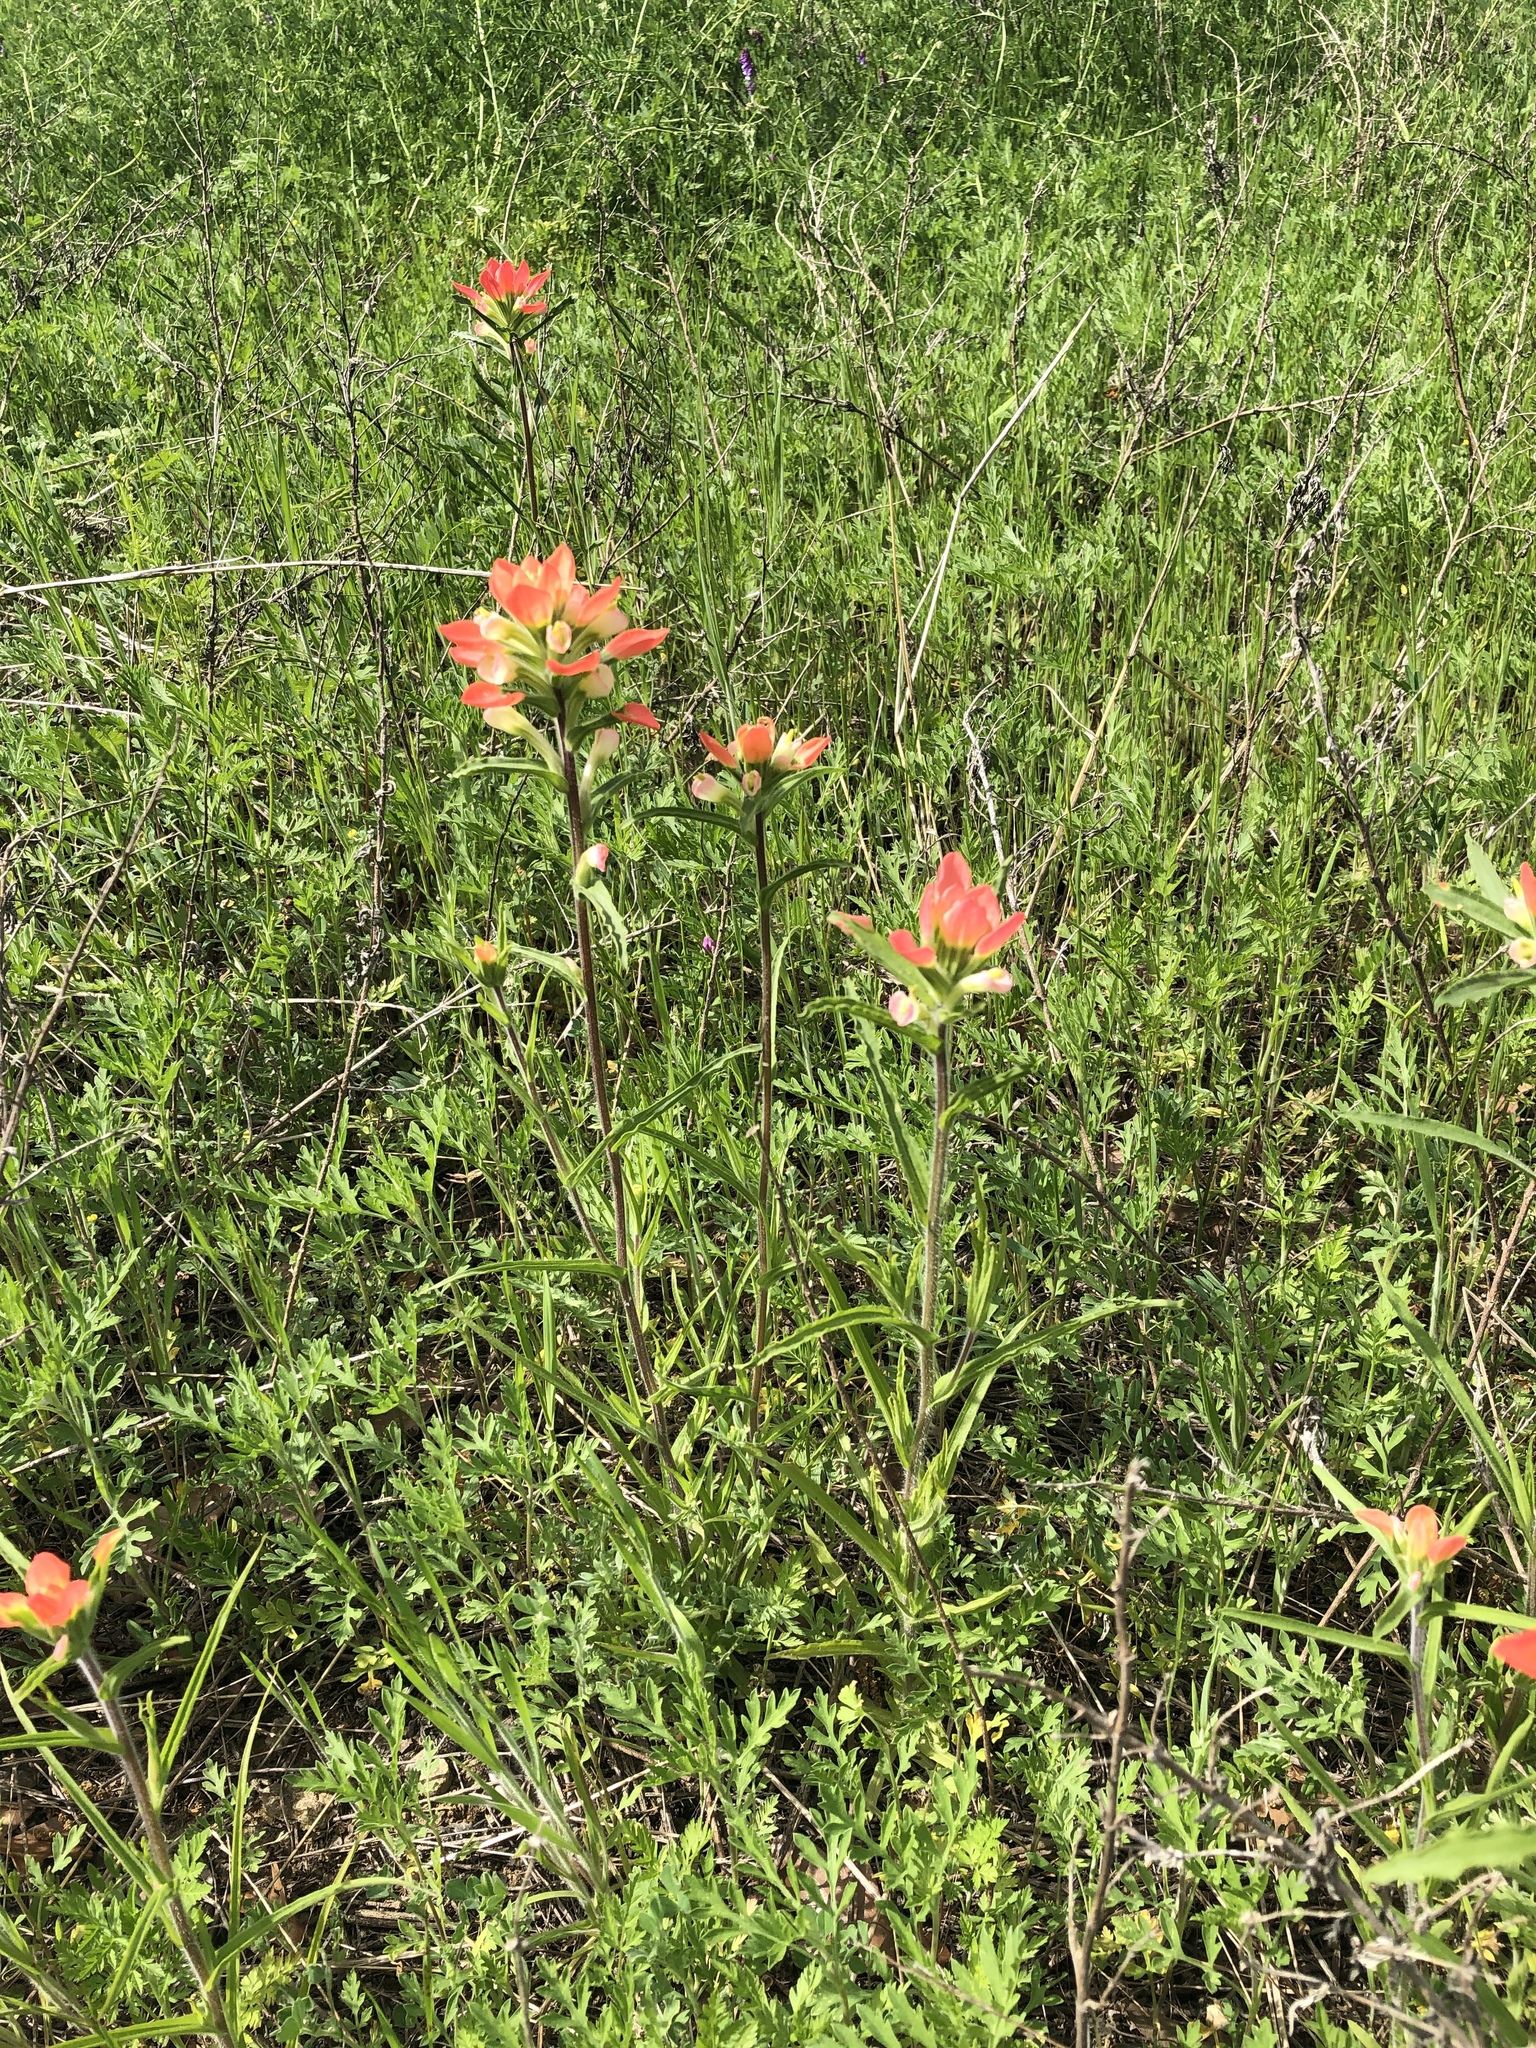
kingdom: Plantae
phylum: Tracheophyta
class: Magnoliopsida
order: Lamiales
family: Orobanchaceae
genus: Castilleja
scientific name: Castilleja indivisa
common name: Texas paintbrush
